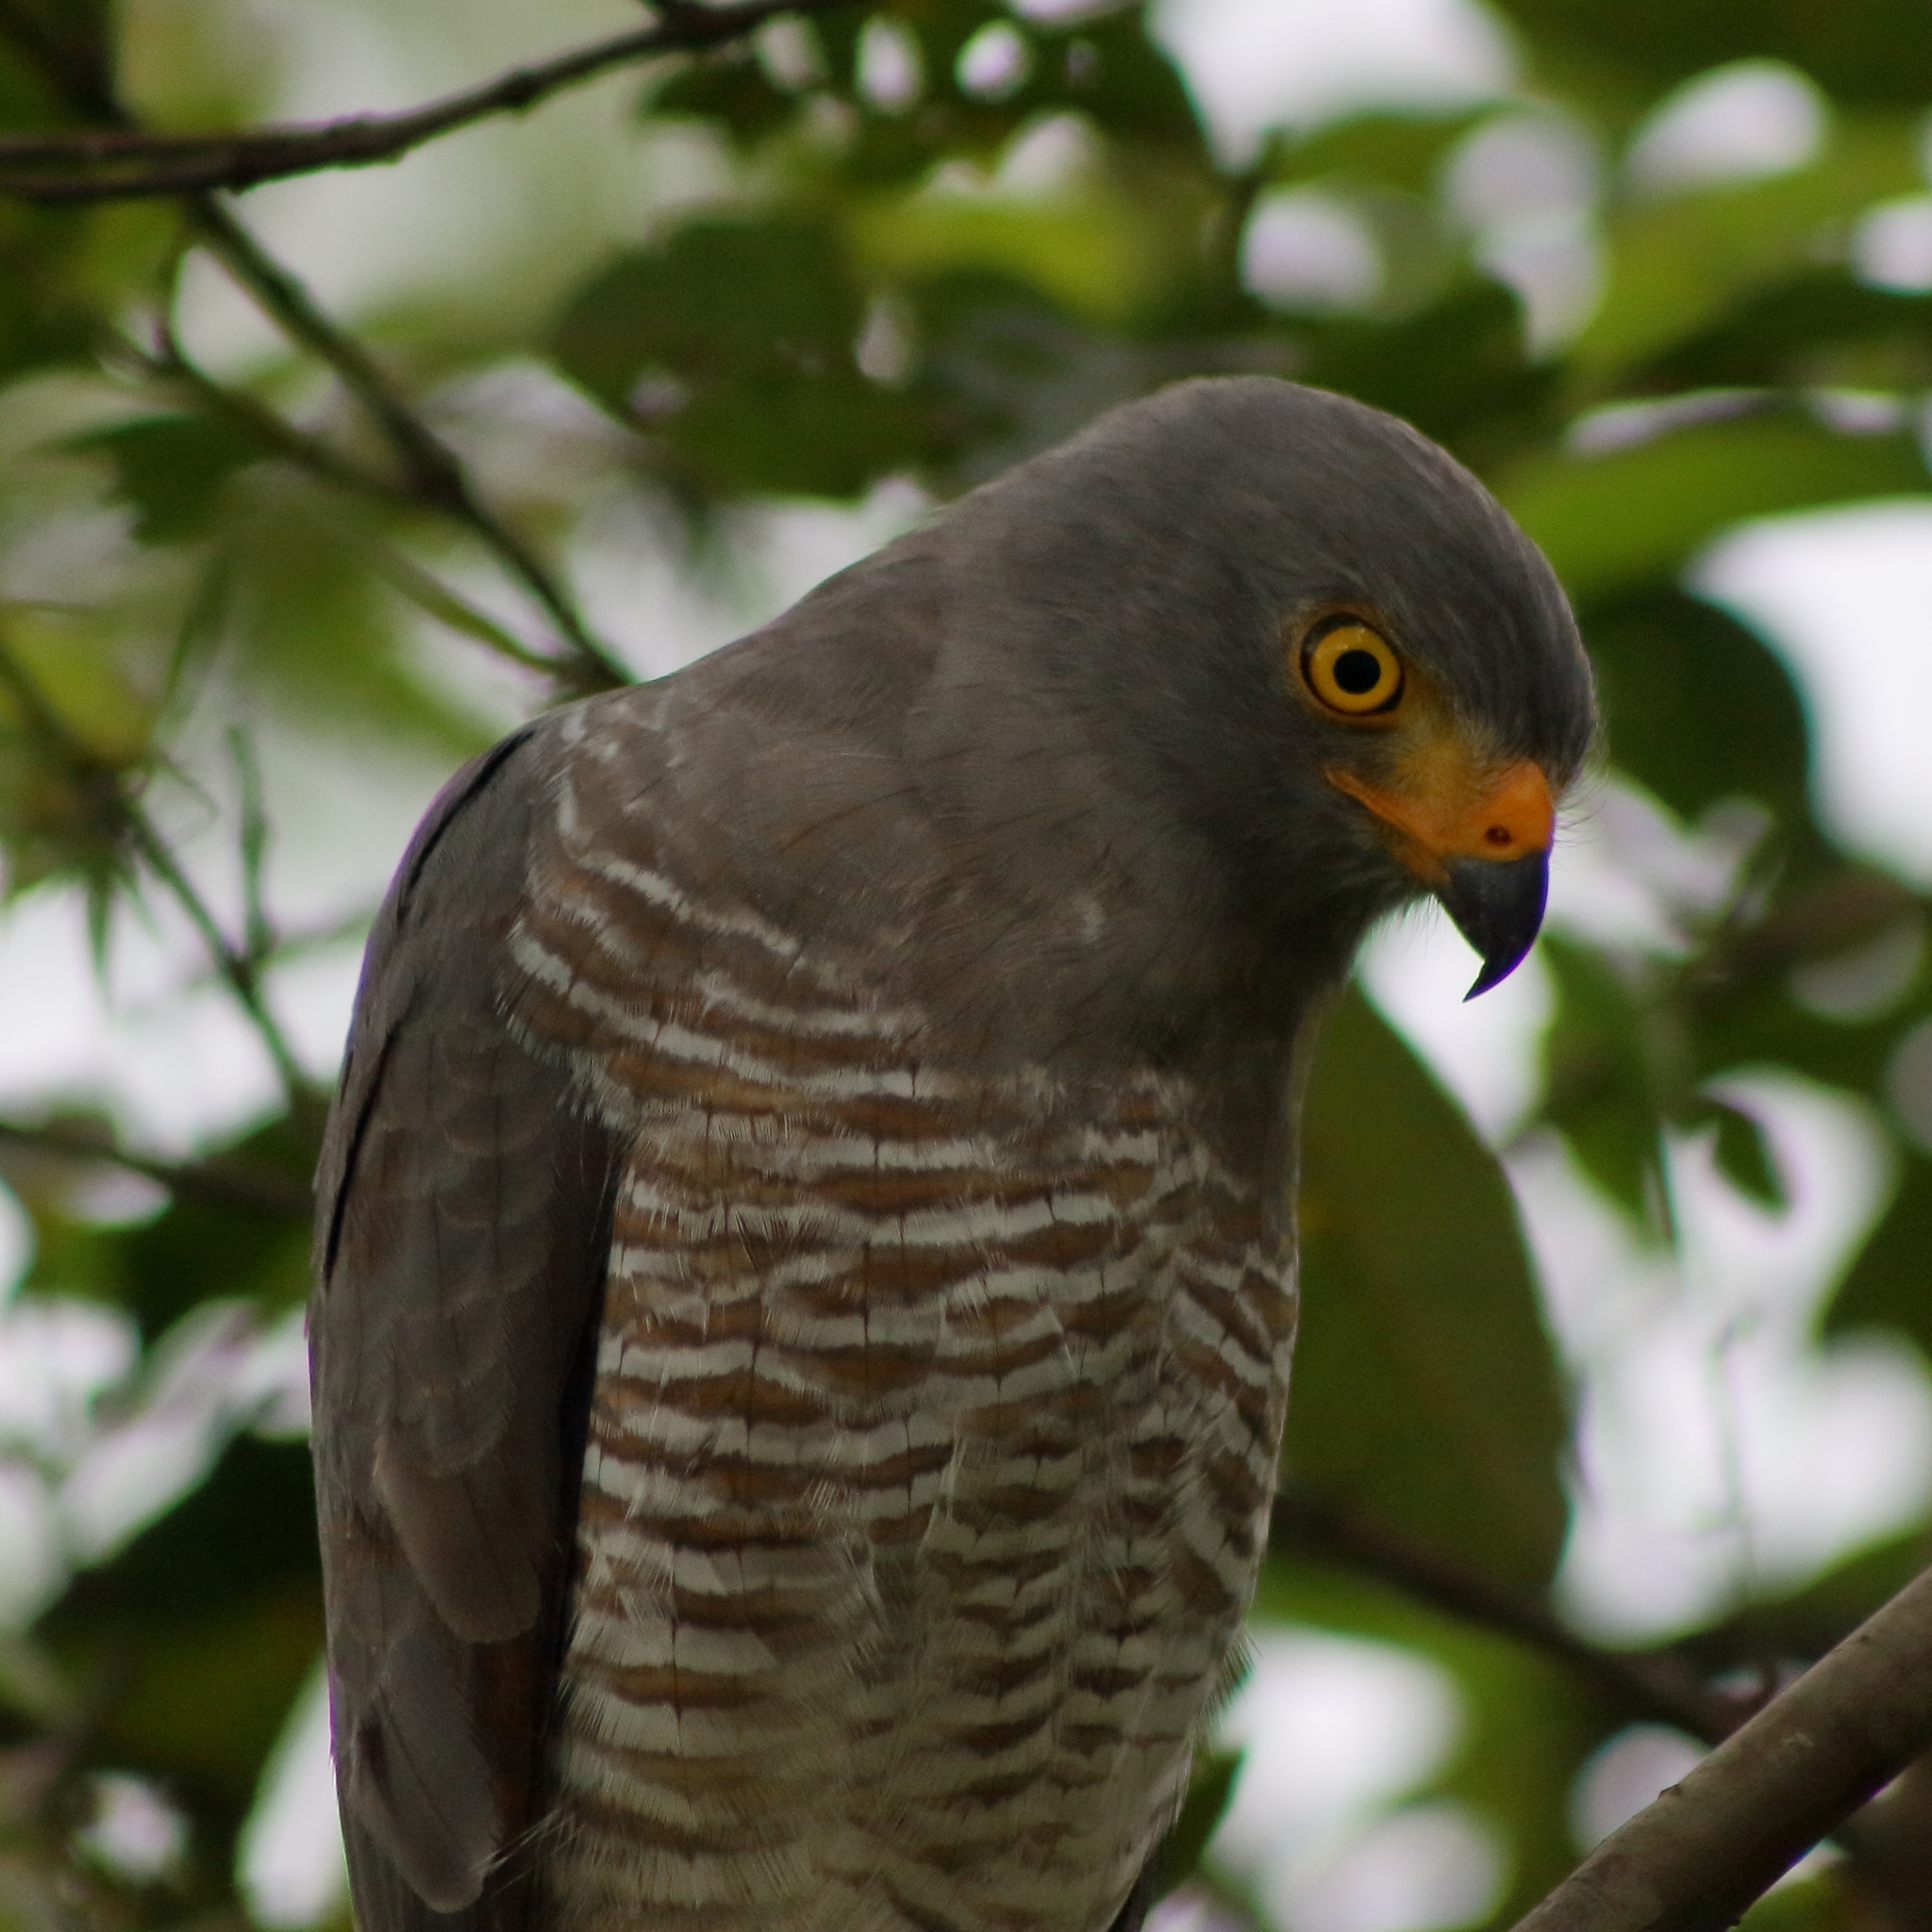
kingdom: Animalia
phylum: Chordata
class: Aves
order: Accipitriformes
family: Accipitridae
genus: Rupornis
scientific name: Rupornis magnirostris
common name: Roadside hawk
